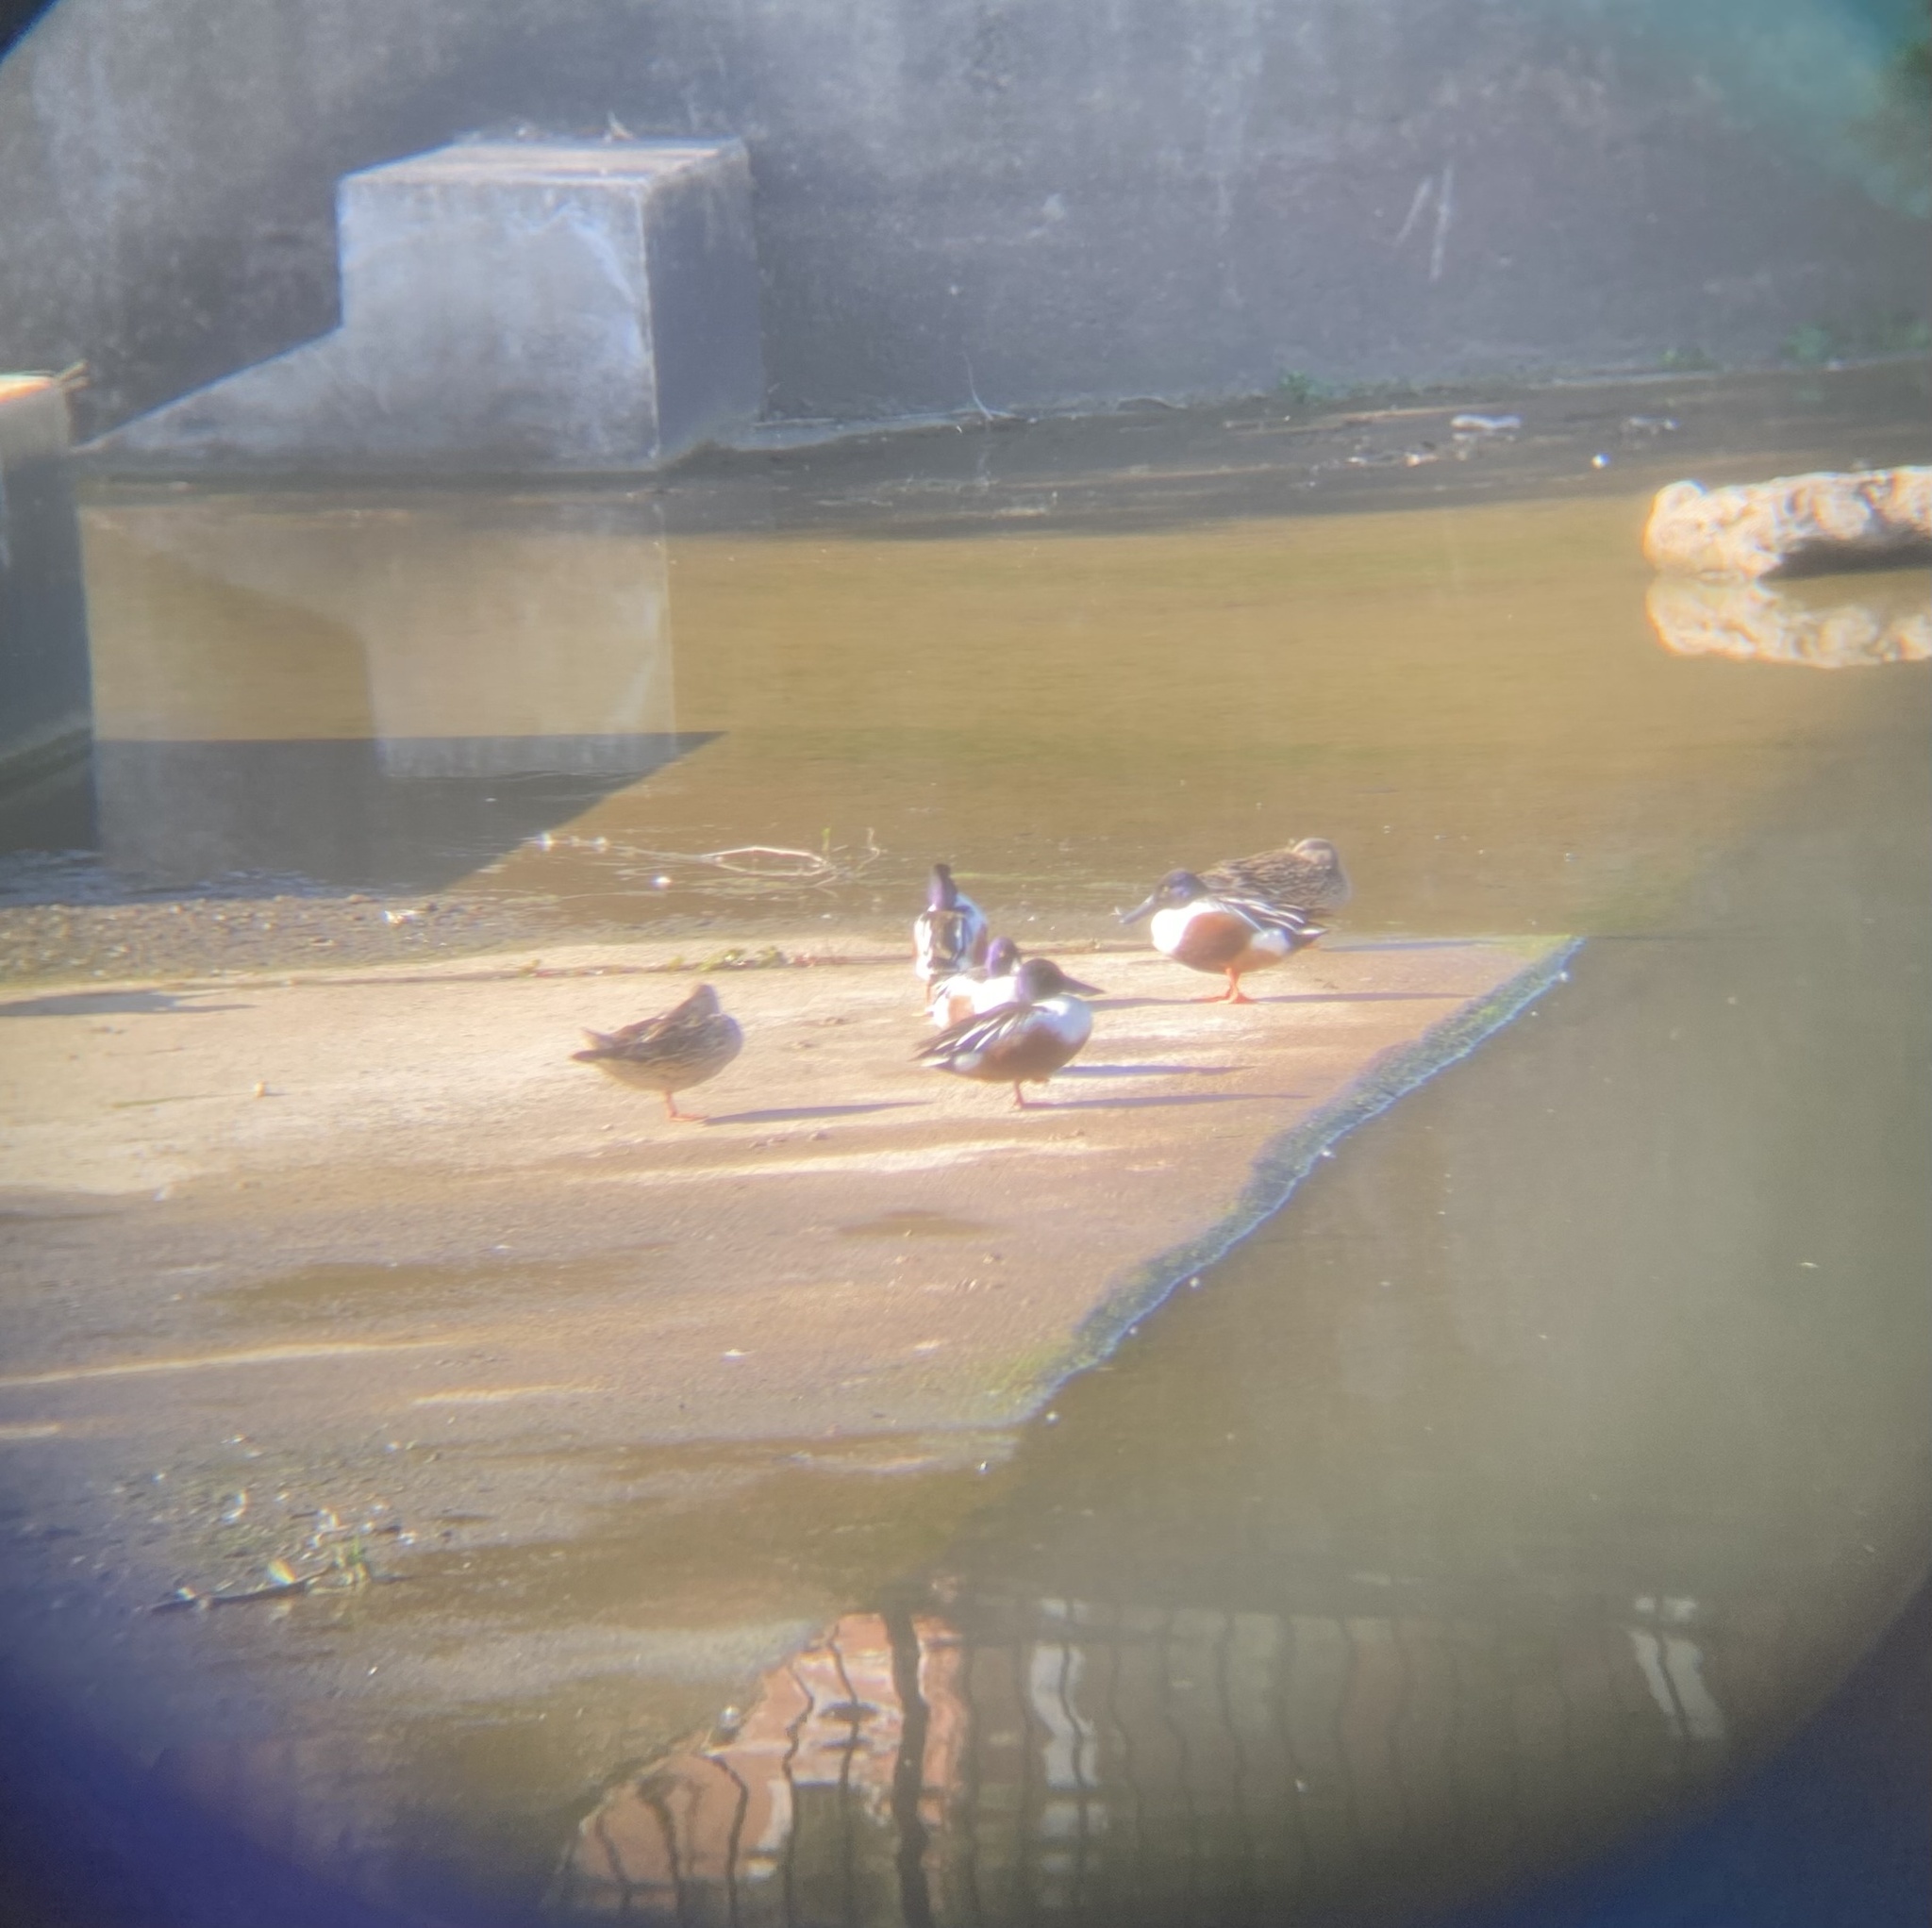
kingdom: Animalia
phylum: Chordata
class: Aves
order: Anseriformes
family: Anatidae
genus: Spatula
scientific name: Spatula clypeata
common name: Northern shoveler
